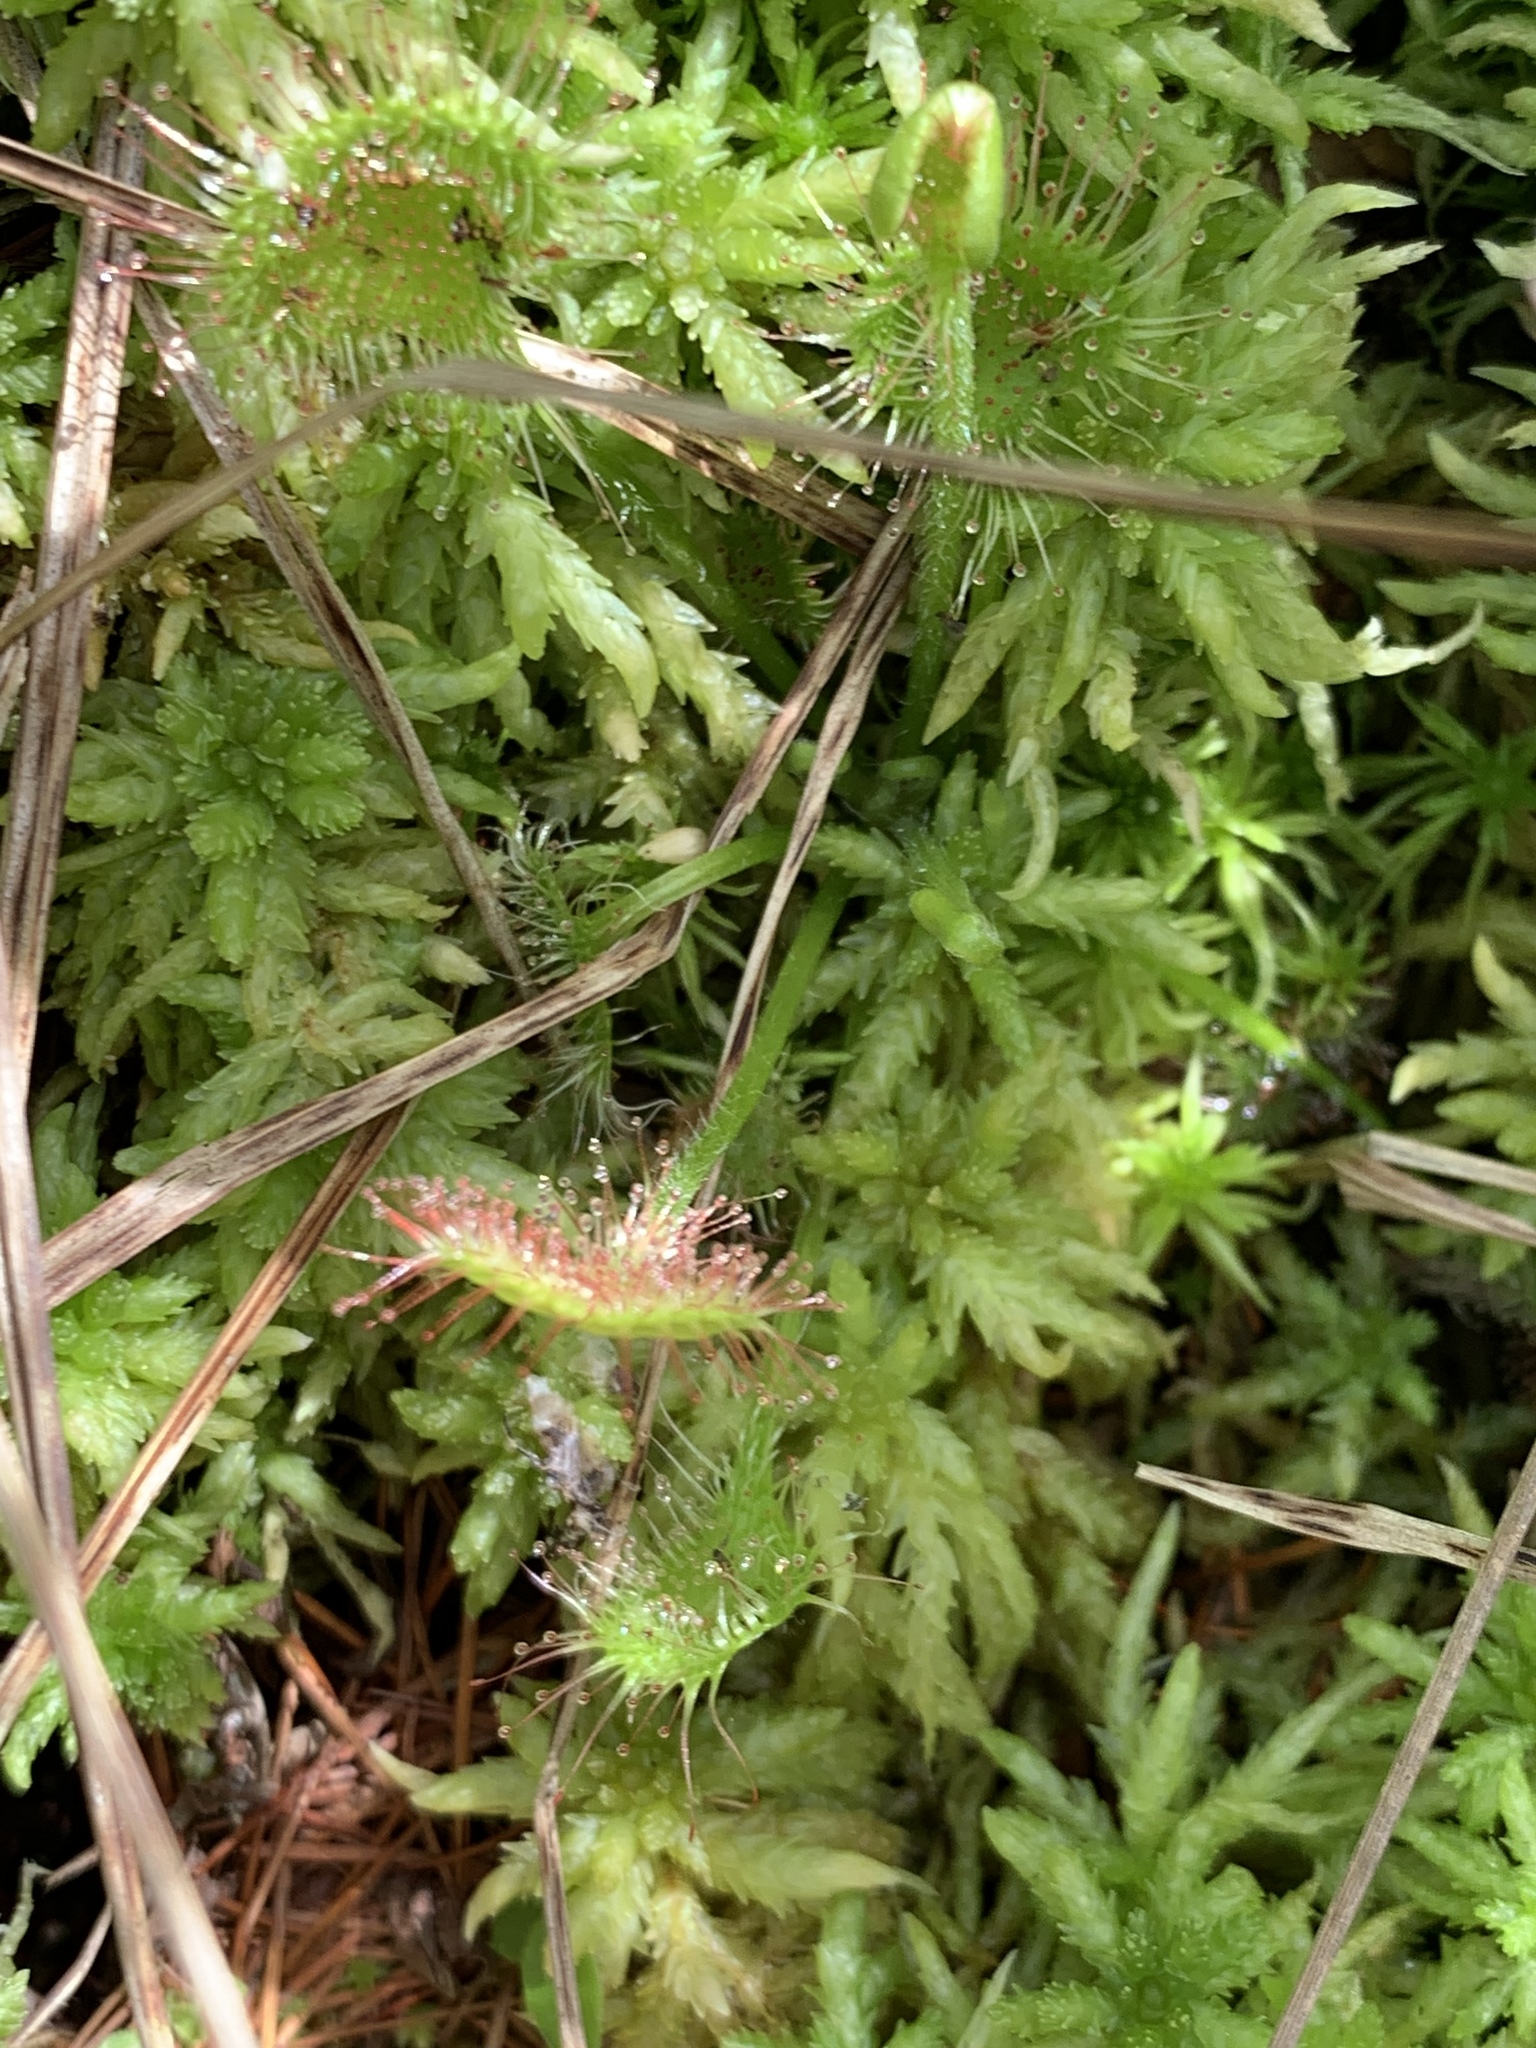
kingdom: Plantae
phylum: Tracheophyta
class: Magnoliopsida
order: Caryophyllales
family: Droseraceae
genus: Drosera
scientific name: Drosera rotundifolia
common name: Round-leaved sundew
